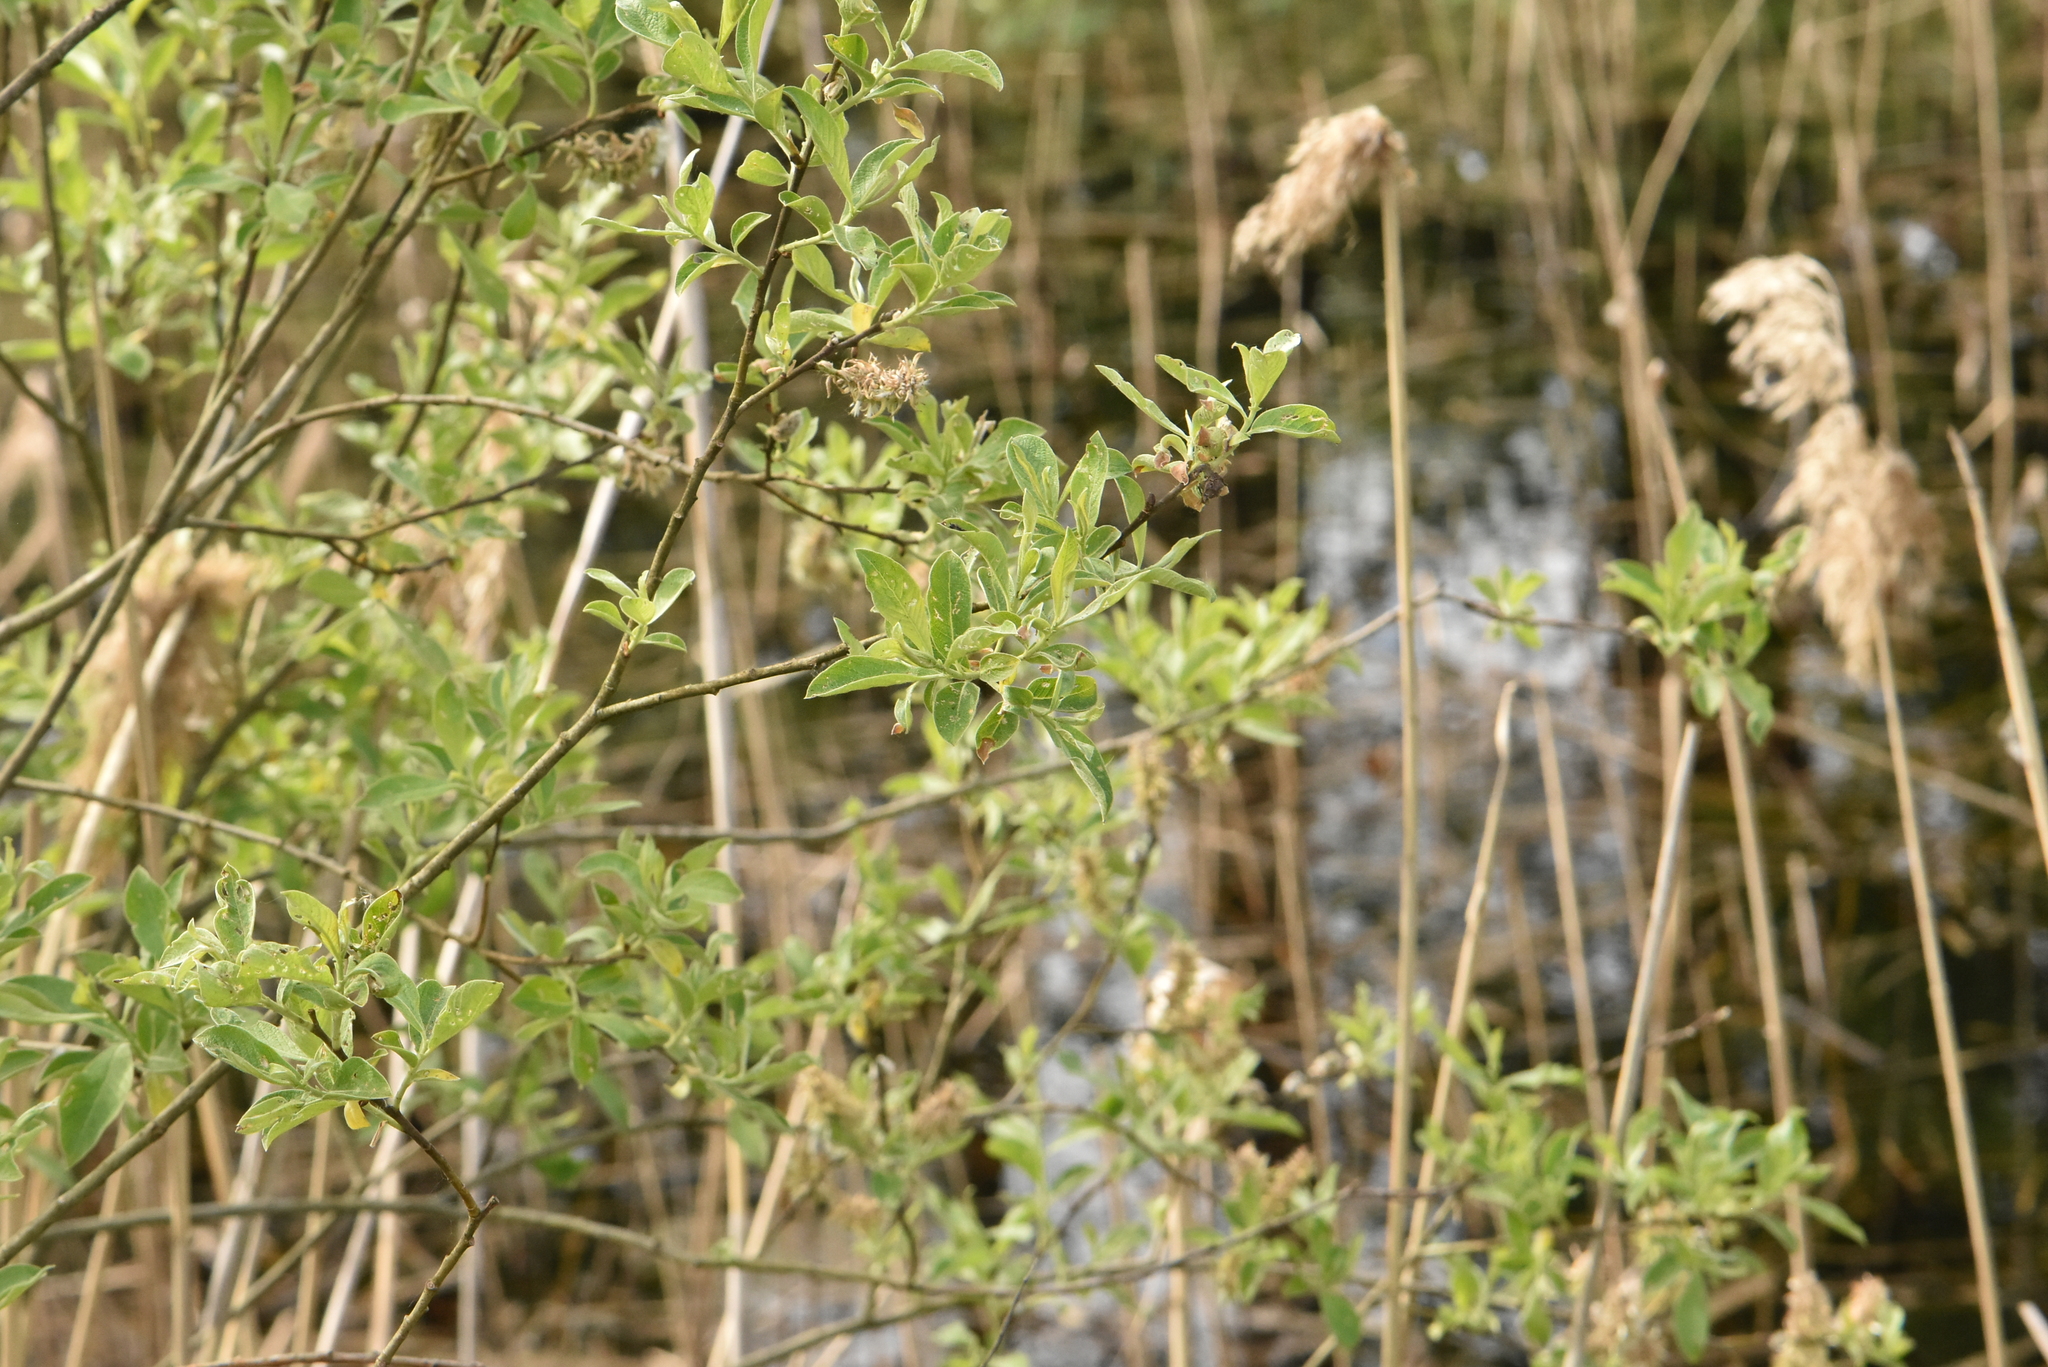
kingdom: Plantae
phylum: Tracheophyta
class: Magnoliopsida
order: Malpighiales
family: Salicaceae
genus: Salix
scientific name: Salix cinerea
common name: Common sallow
